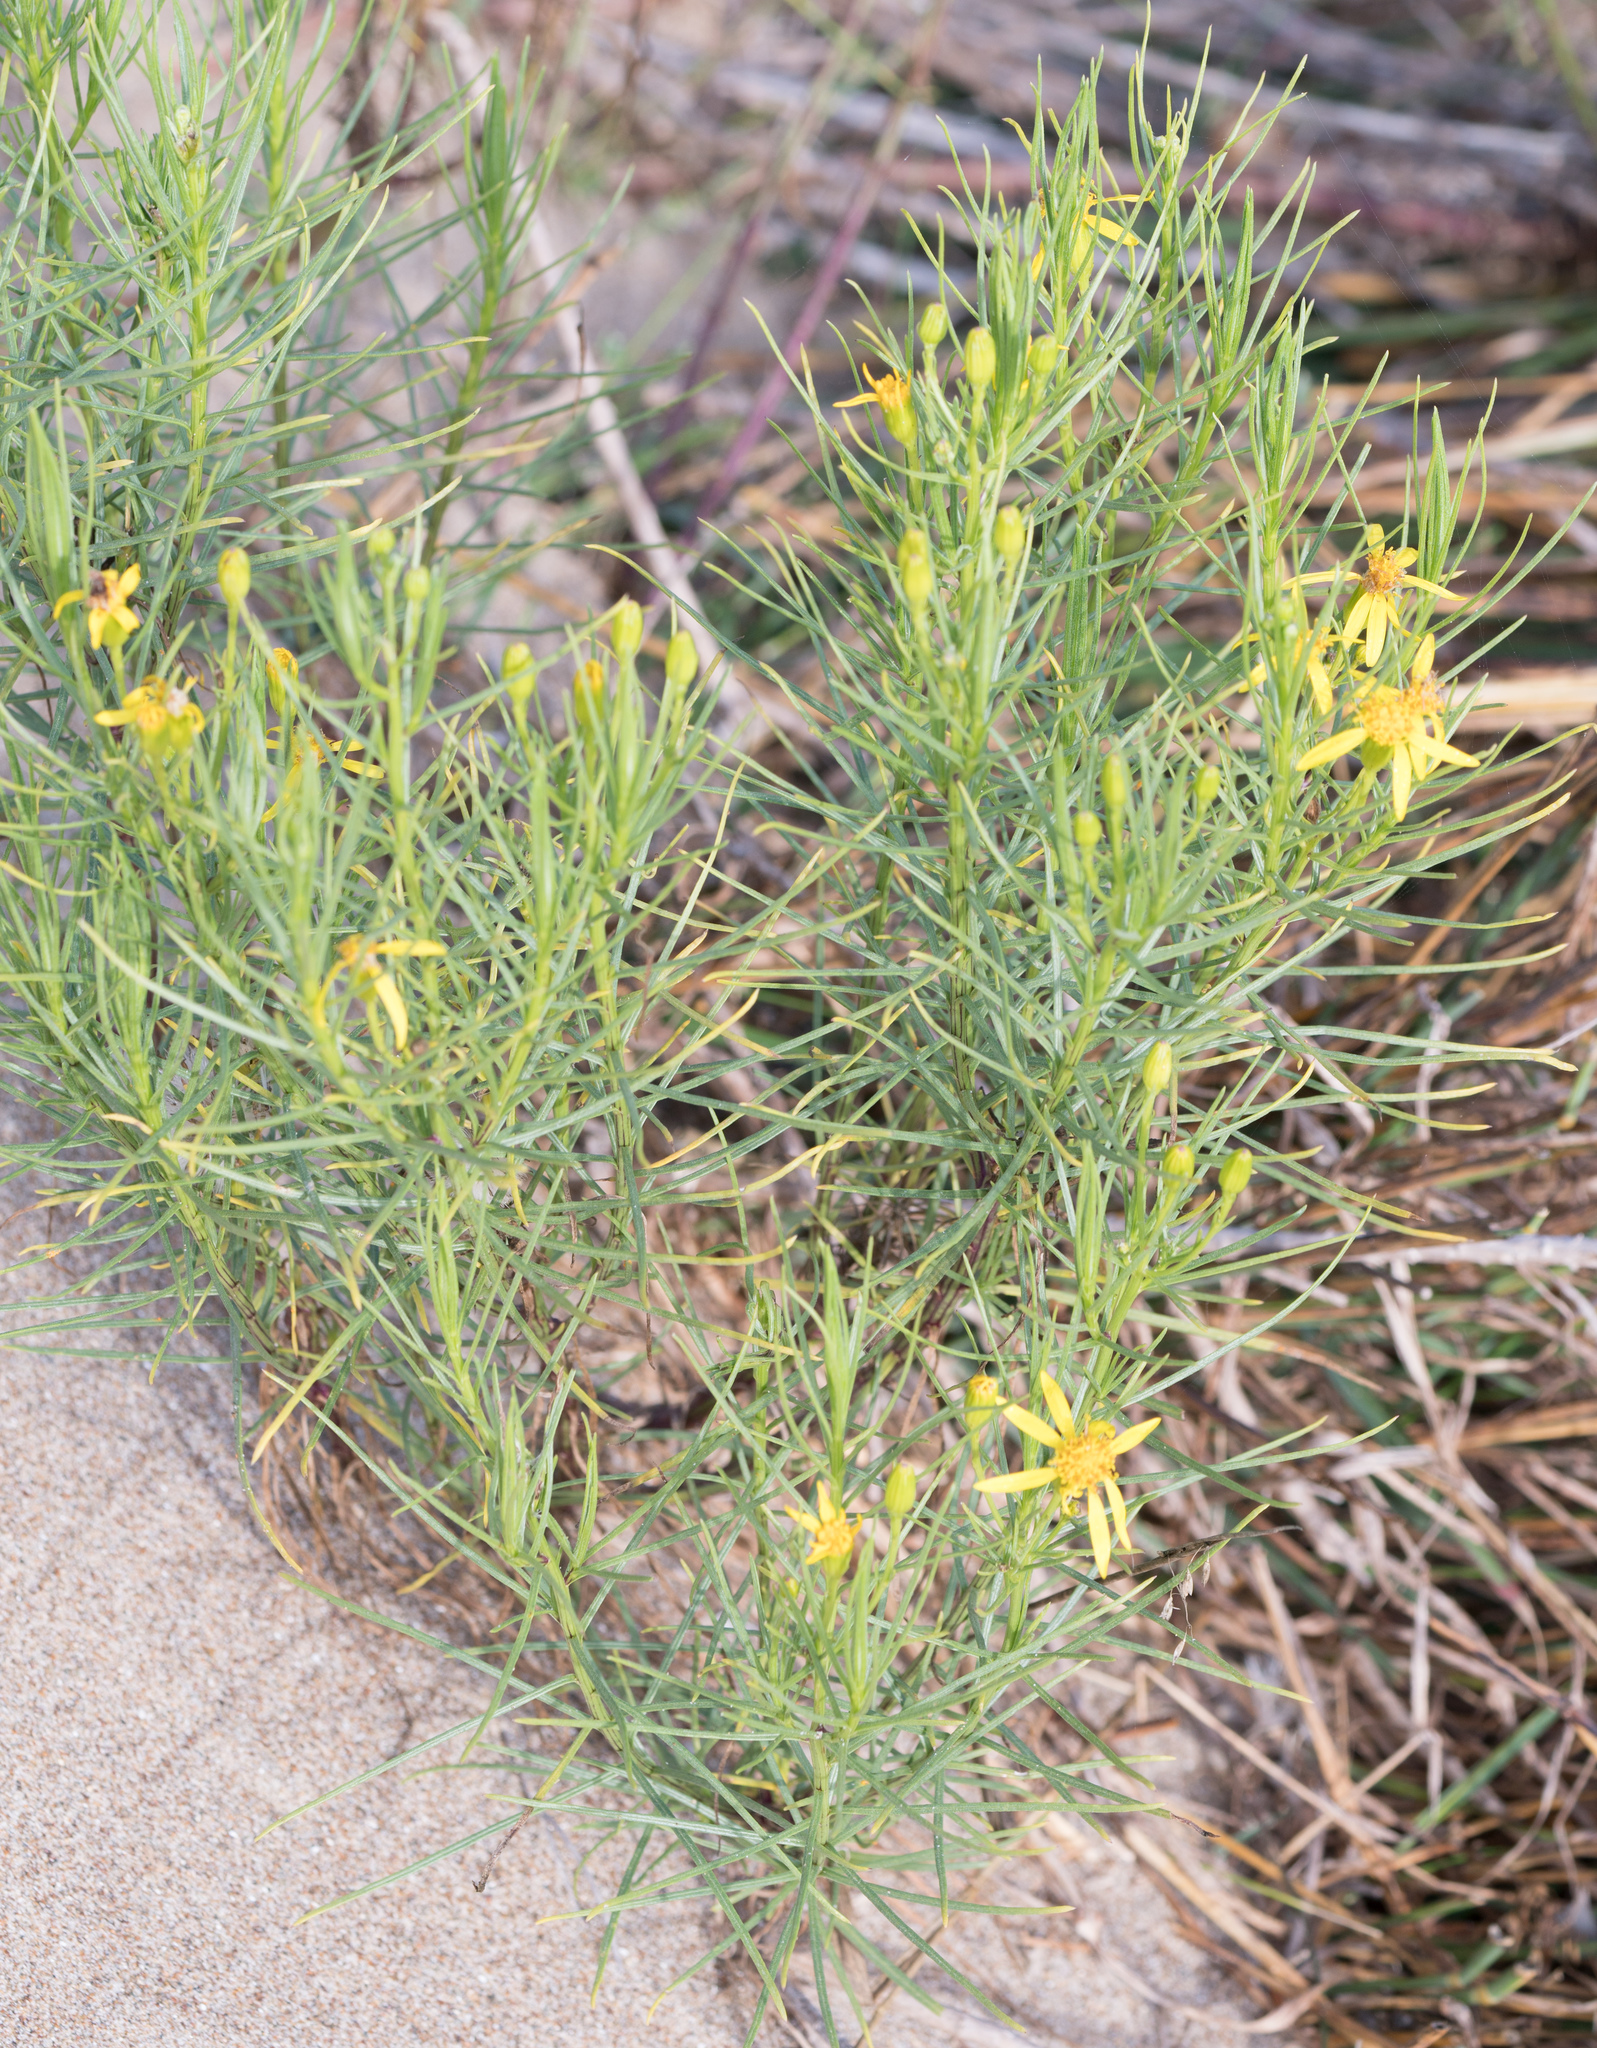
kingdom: Plantae
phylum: Tracheophyta
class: Magnoliopsida
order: Asterales
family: Asteraceae
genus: Senecio
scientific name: Senecio blochmaniae
